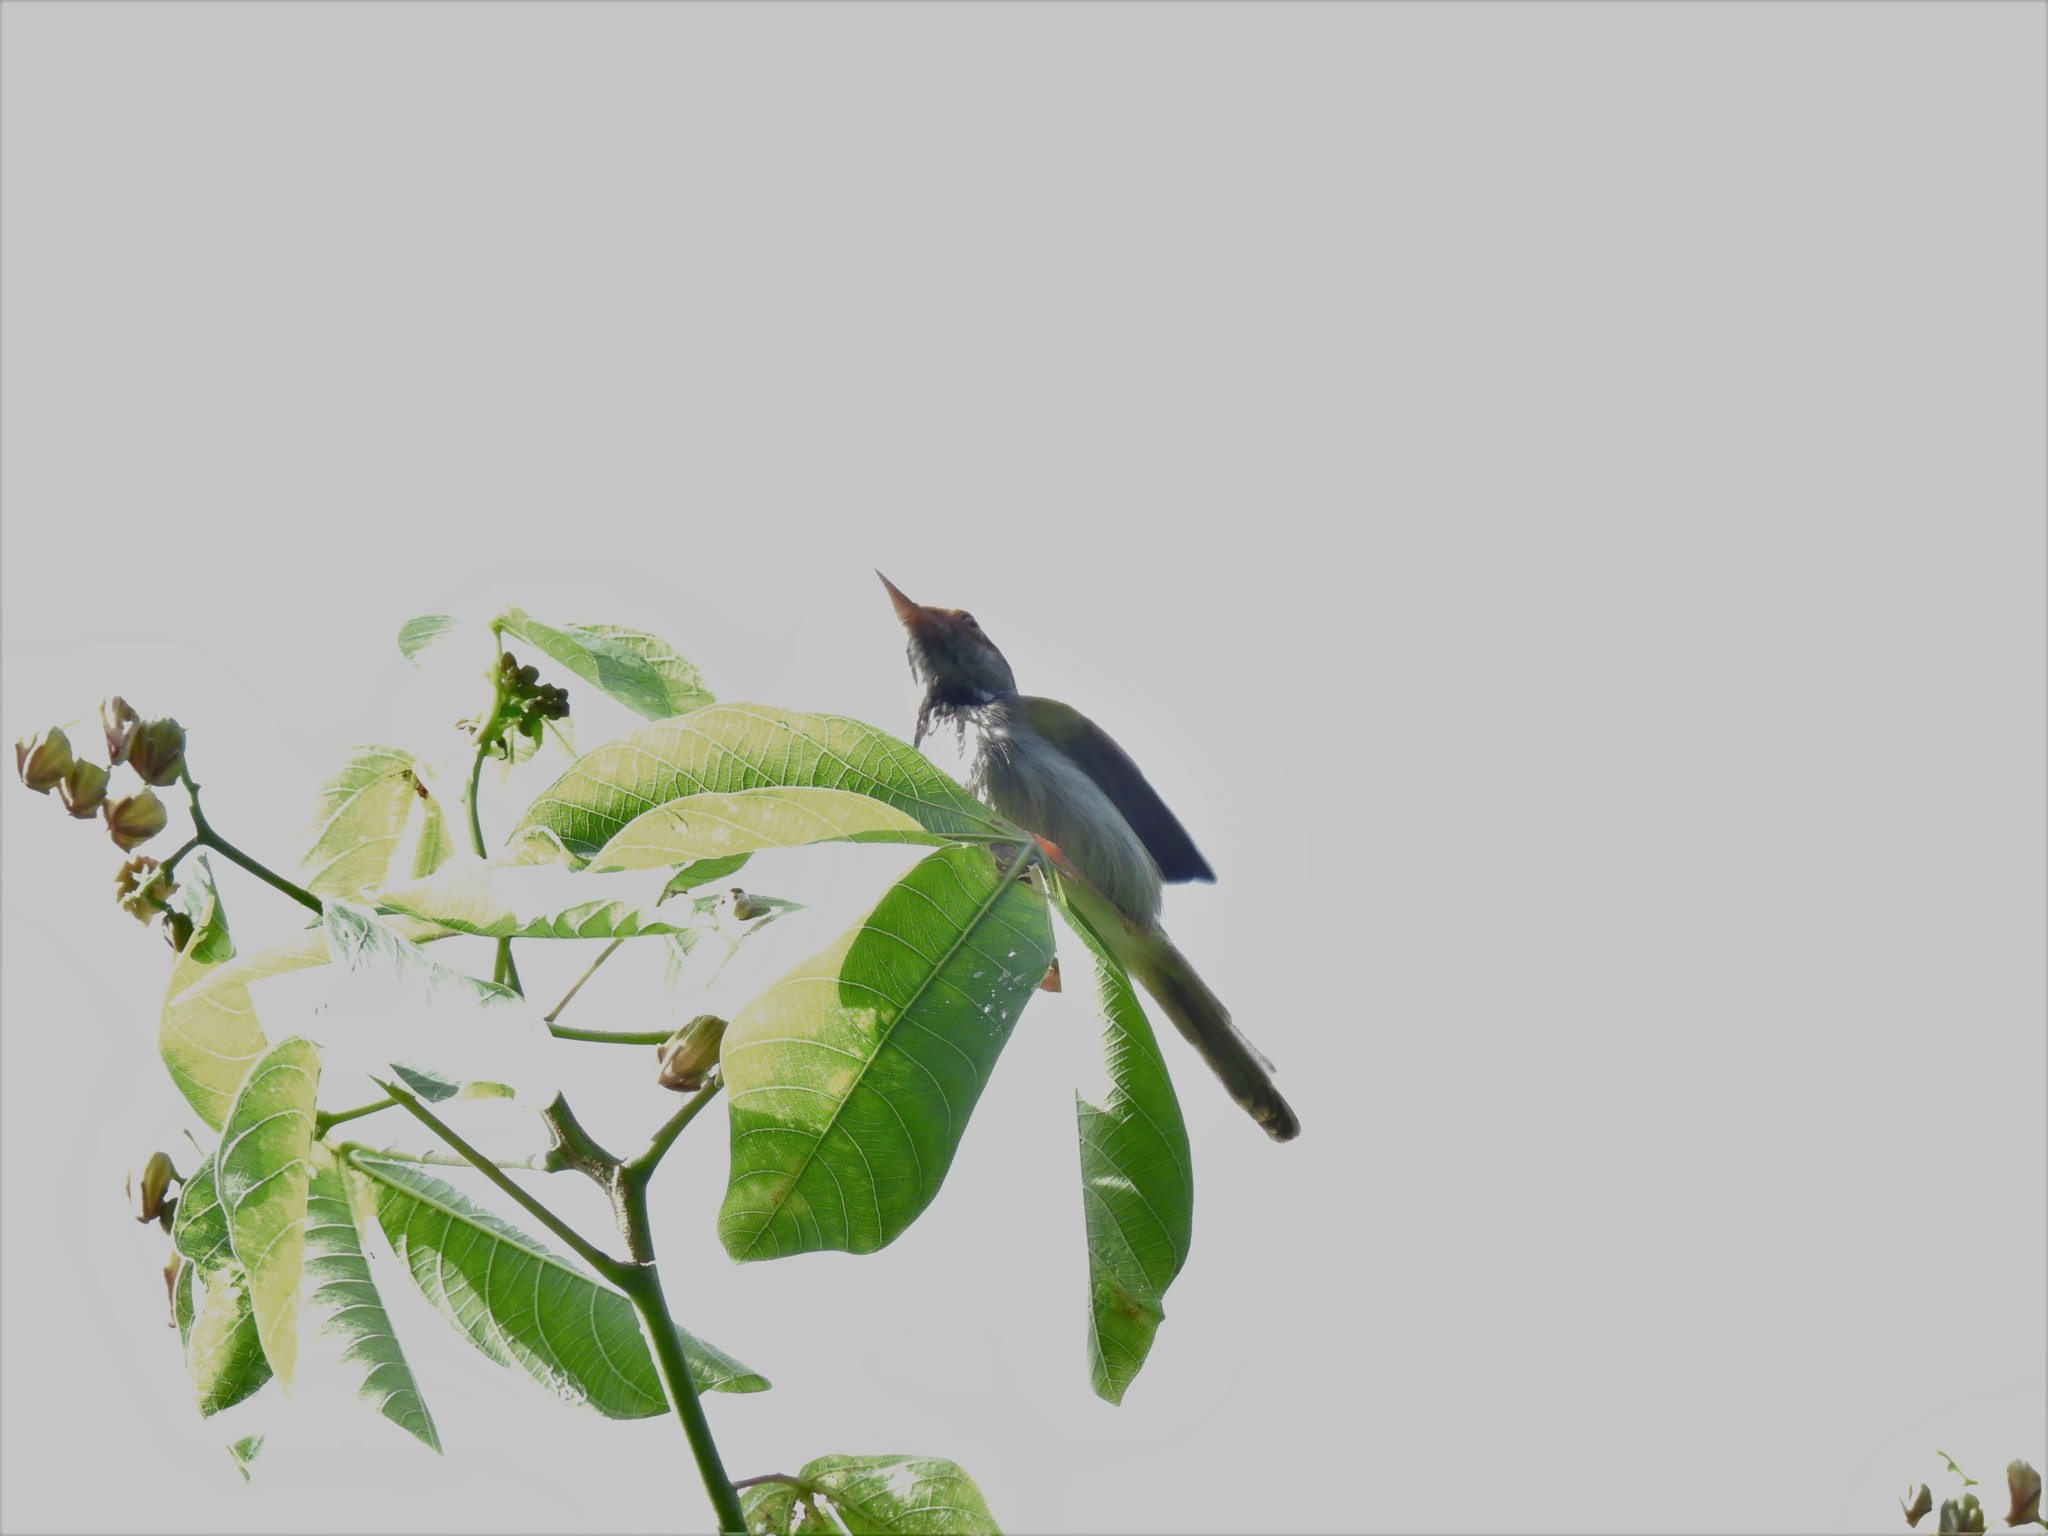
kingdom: Animalia
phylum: Chordata
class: Aves
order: Passeriformes
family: Cisticolidae
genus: Orthotomus
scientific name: Orthotomus atrogularis
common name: Dark-necked tailorbird
